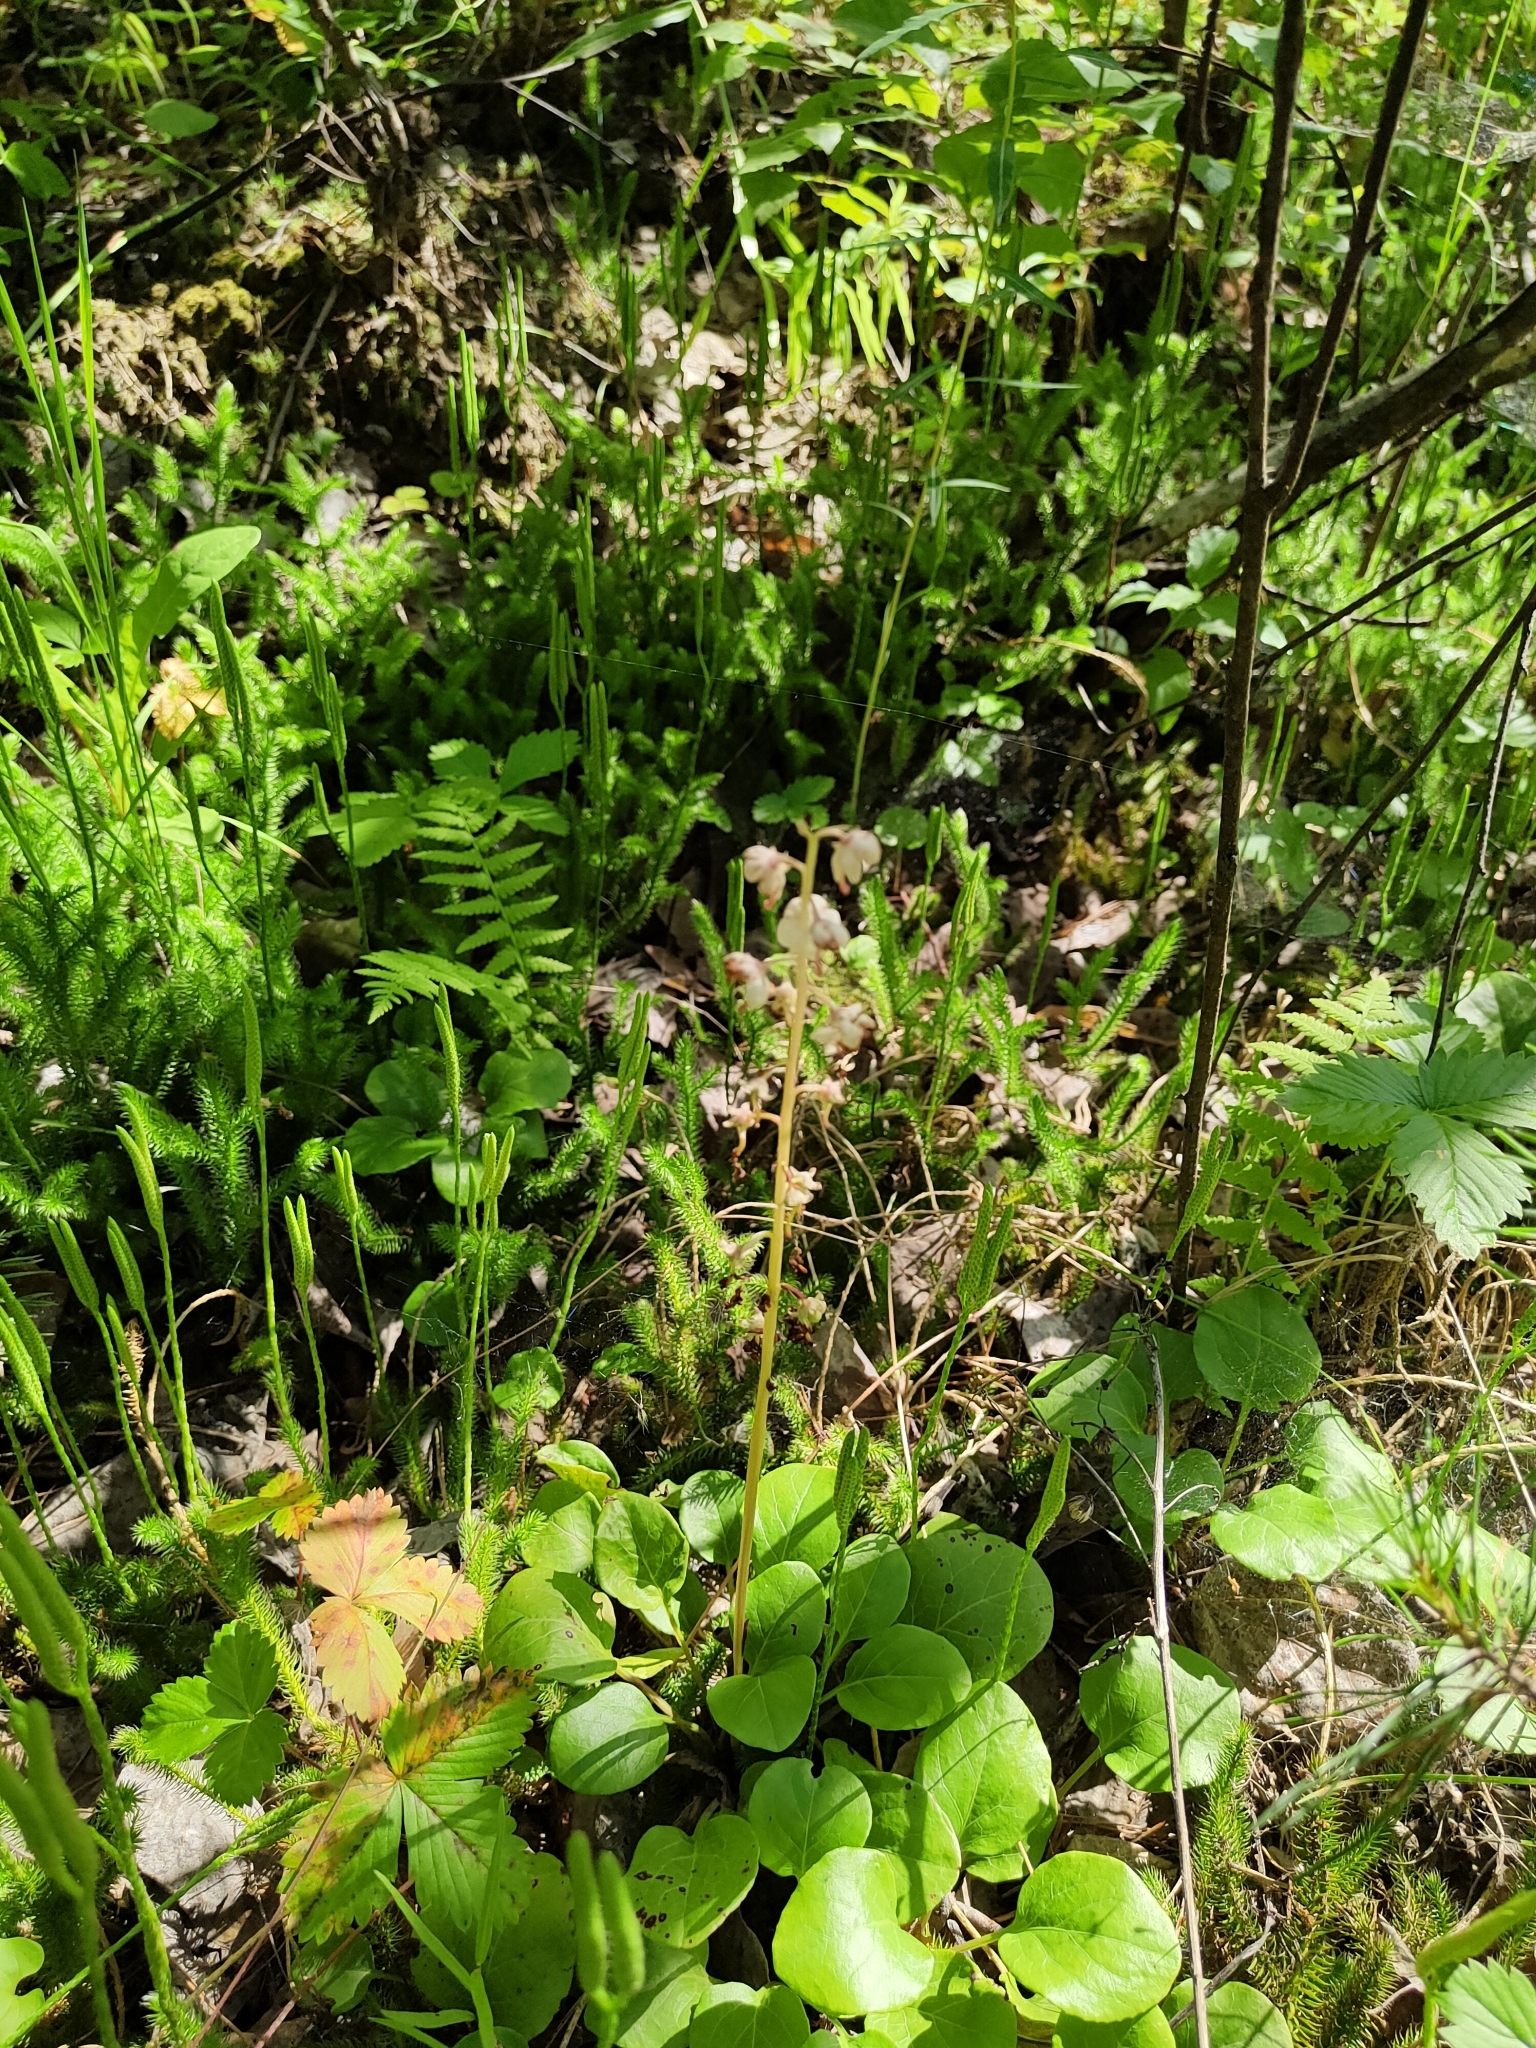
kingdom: Plantae
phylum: Tracheophyta
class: Magnoliopsida
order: Ericales
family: Ericaceae
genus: Pyrola
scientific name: Pyrola rotundifolia
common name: Round-leaved wintergreen
